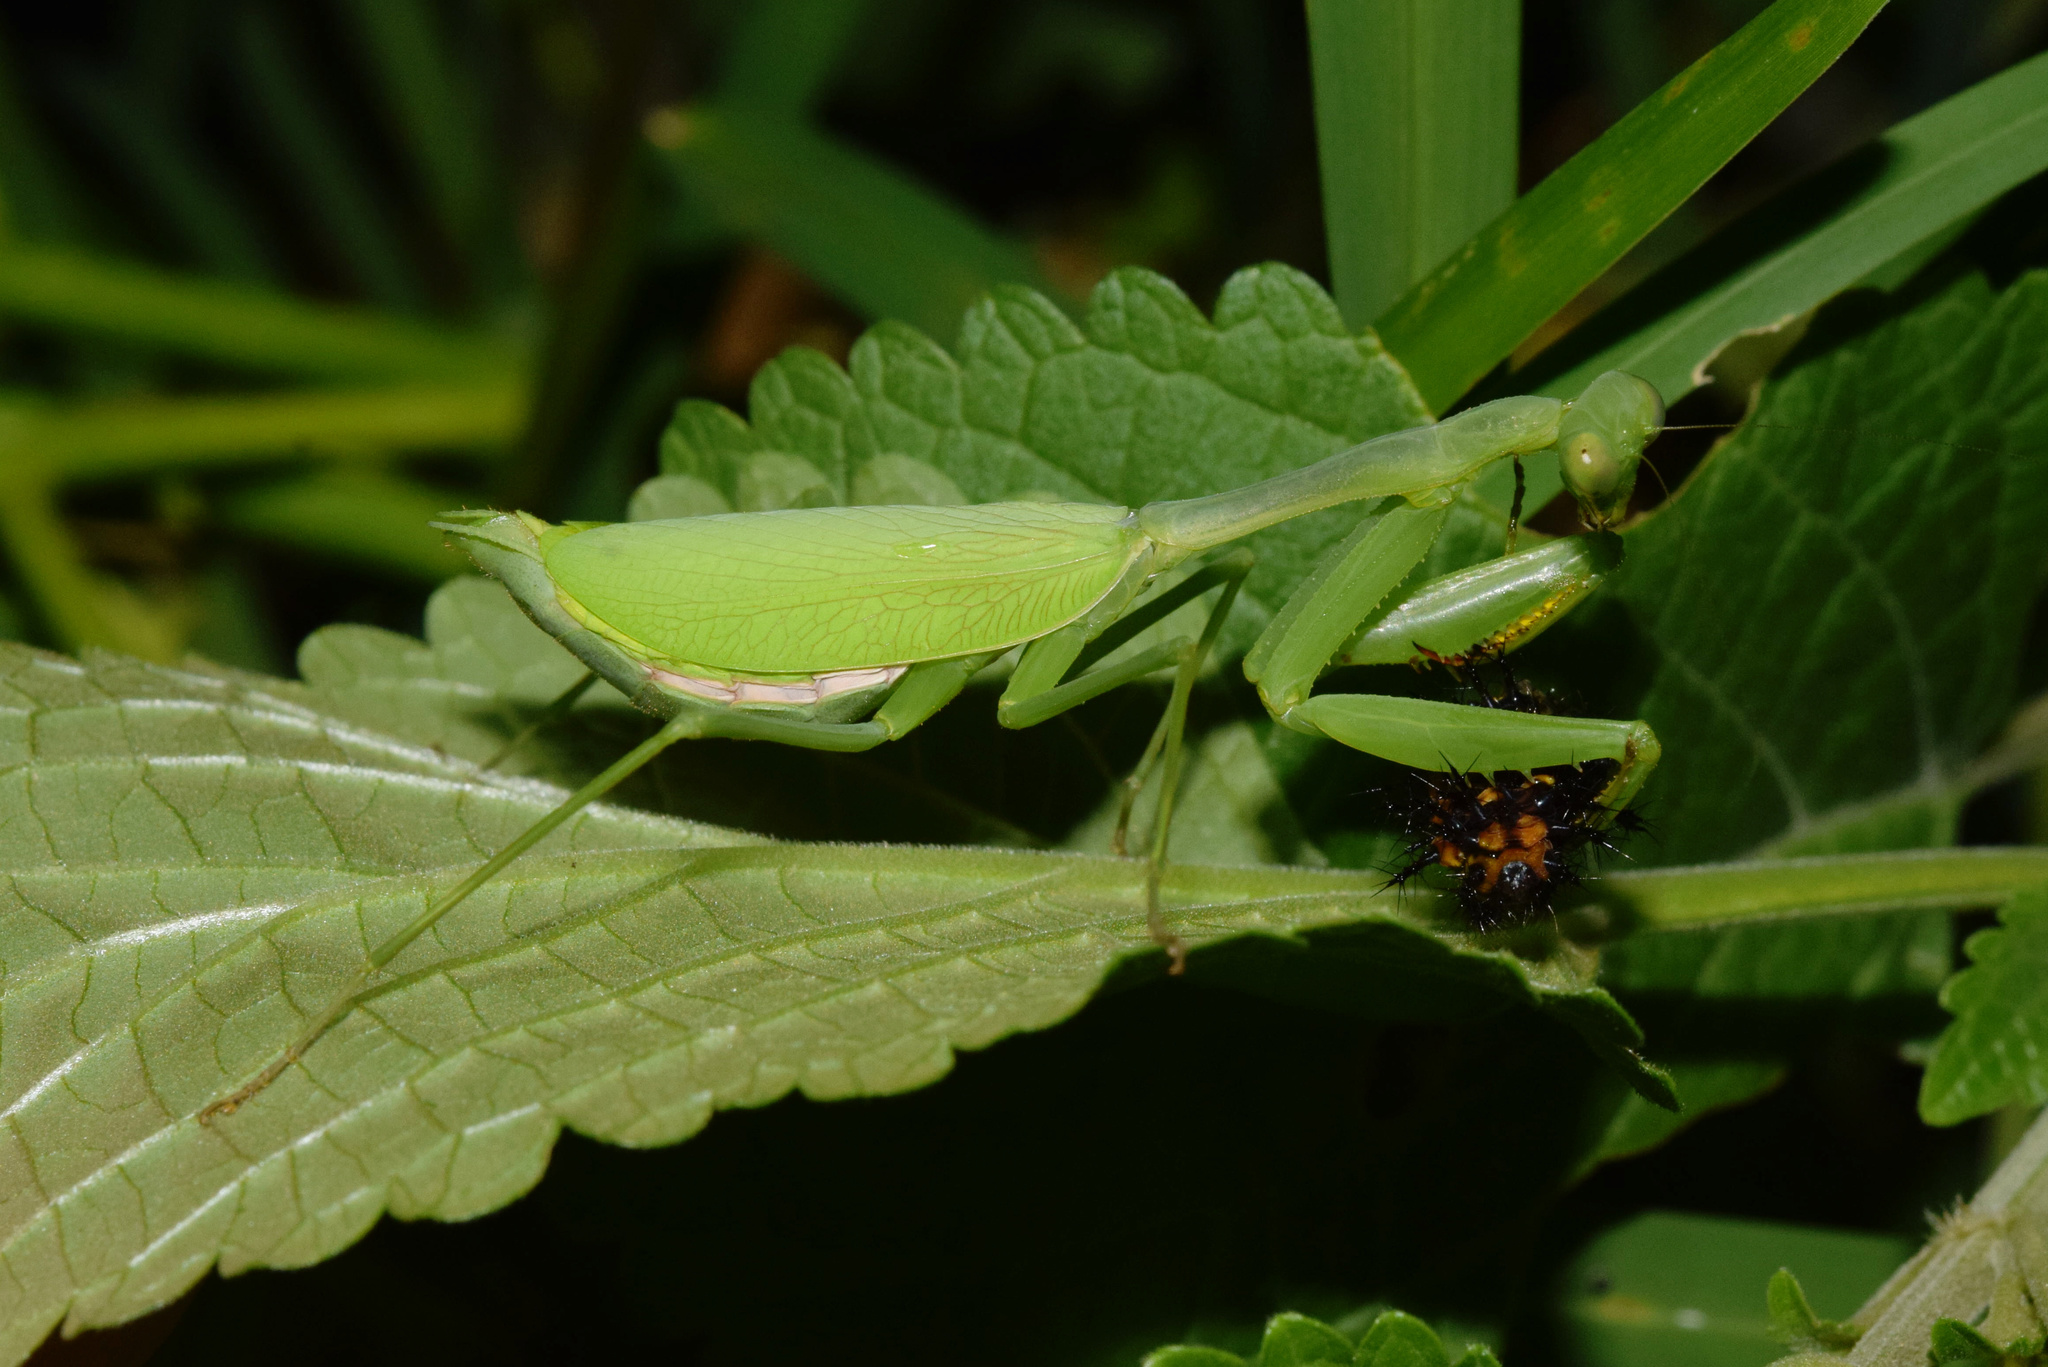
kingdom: Animalia
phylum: Arthropoda
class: Insecta
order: Mantodea
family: Miomantidae
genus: Miomantis
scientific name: Miomantis caffra
